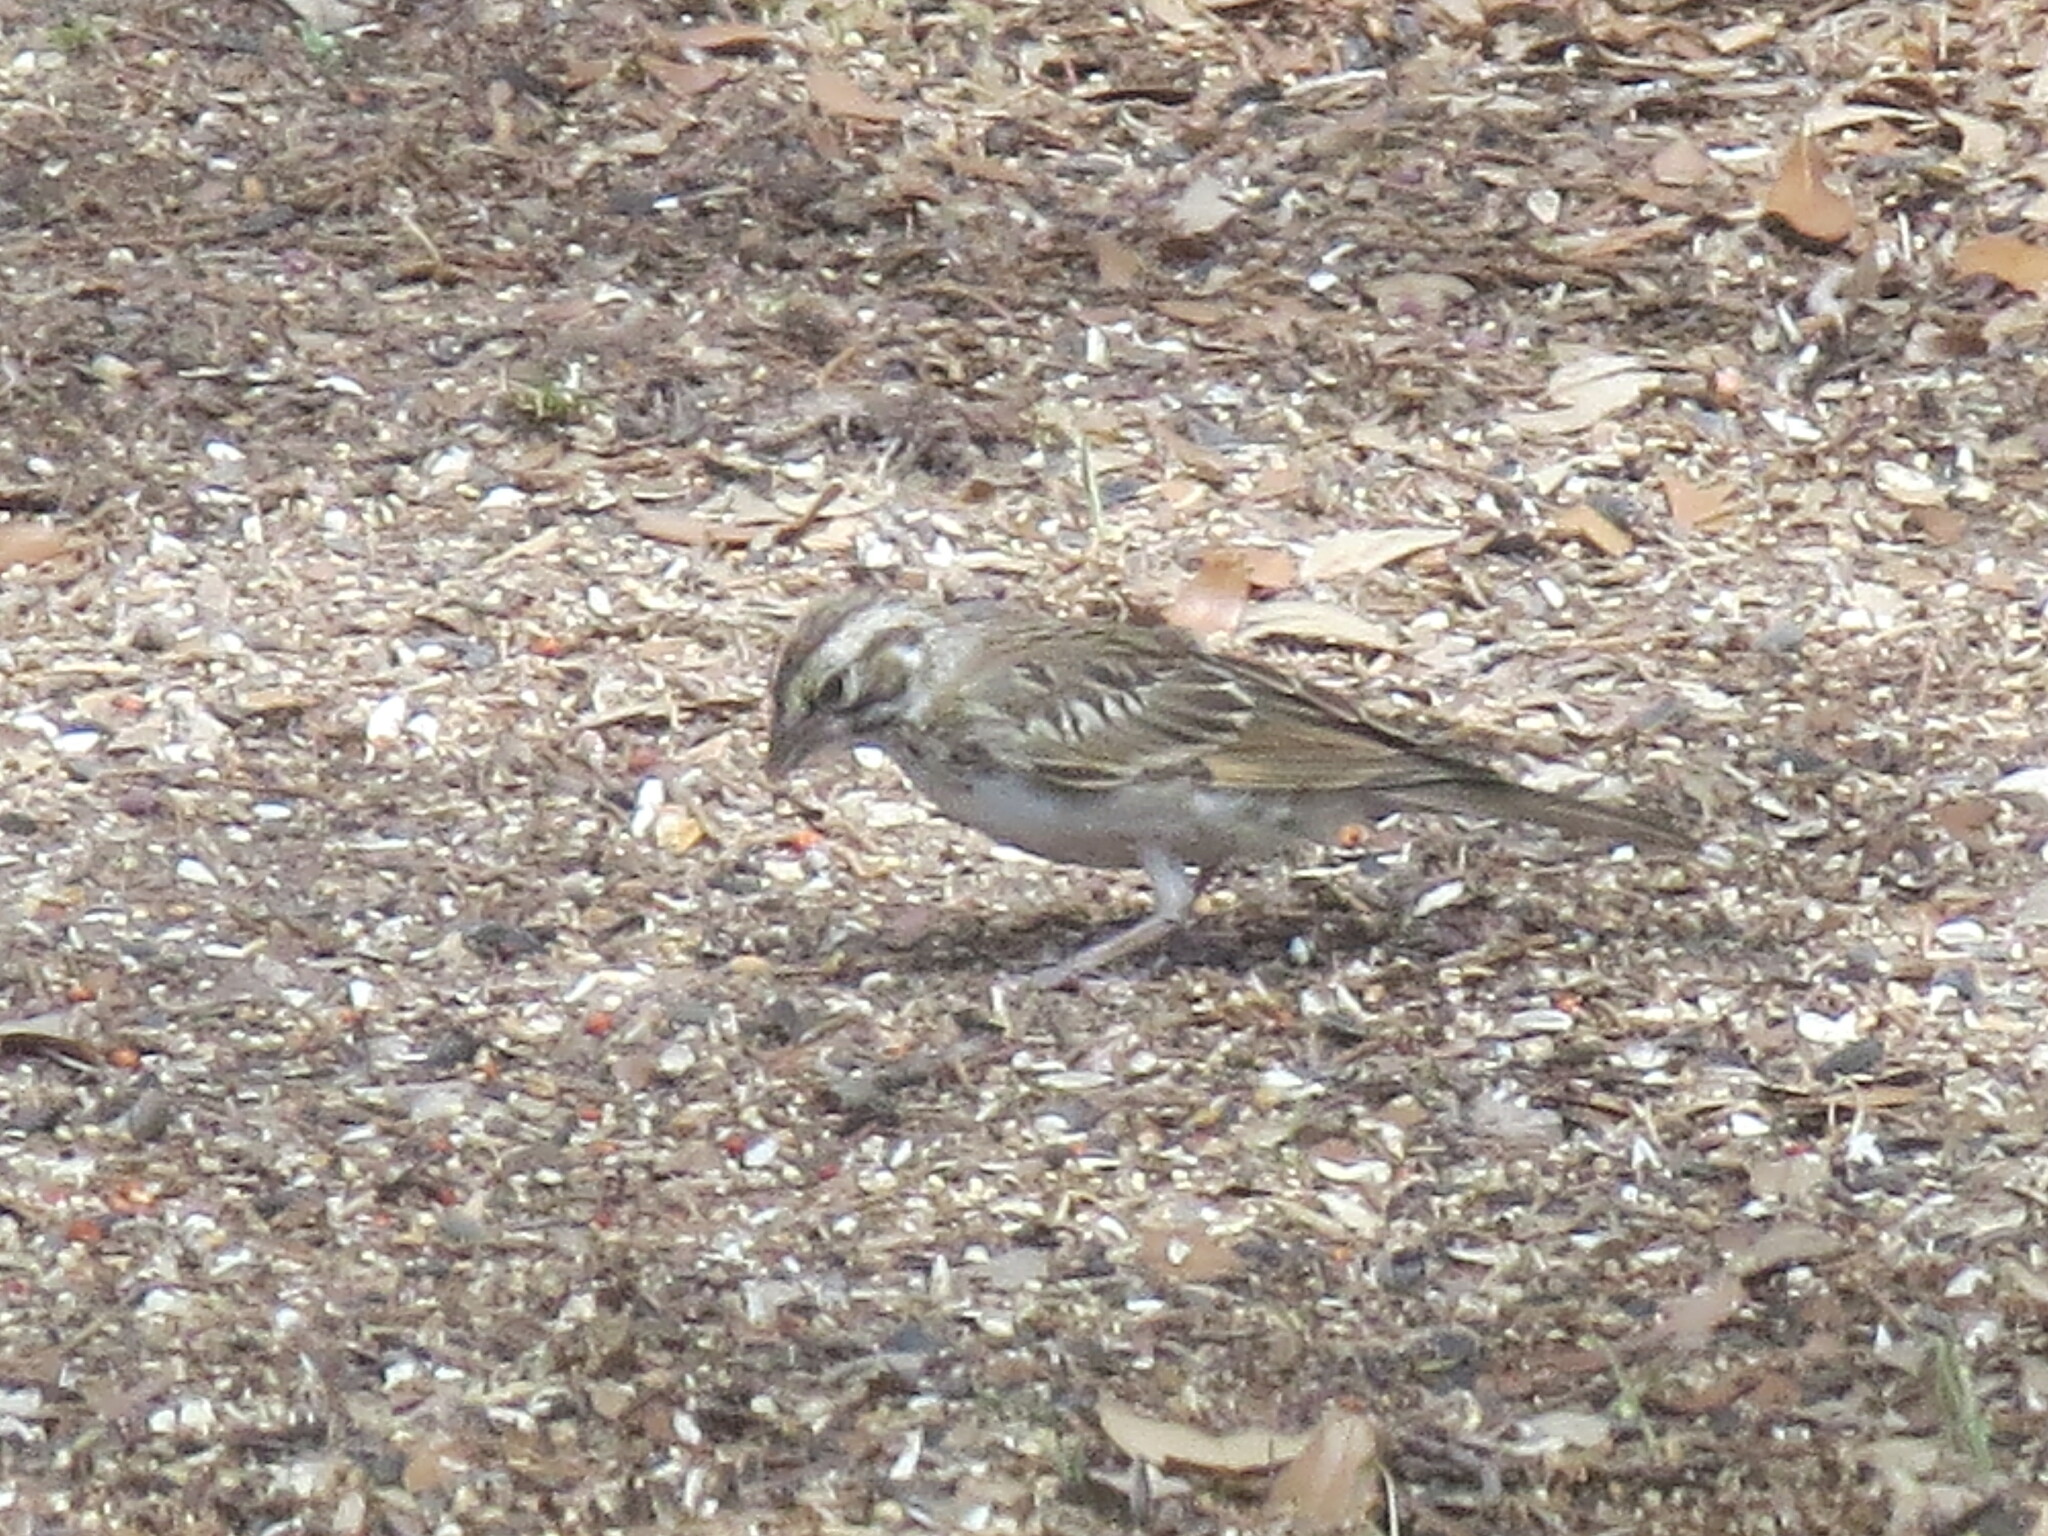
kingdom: Animalia
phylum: Chordata
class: Aves
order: Passeriformes
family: Passerellidae
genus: Chondestes
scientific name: Chondestes grammacus
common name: Lark sparrow
